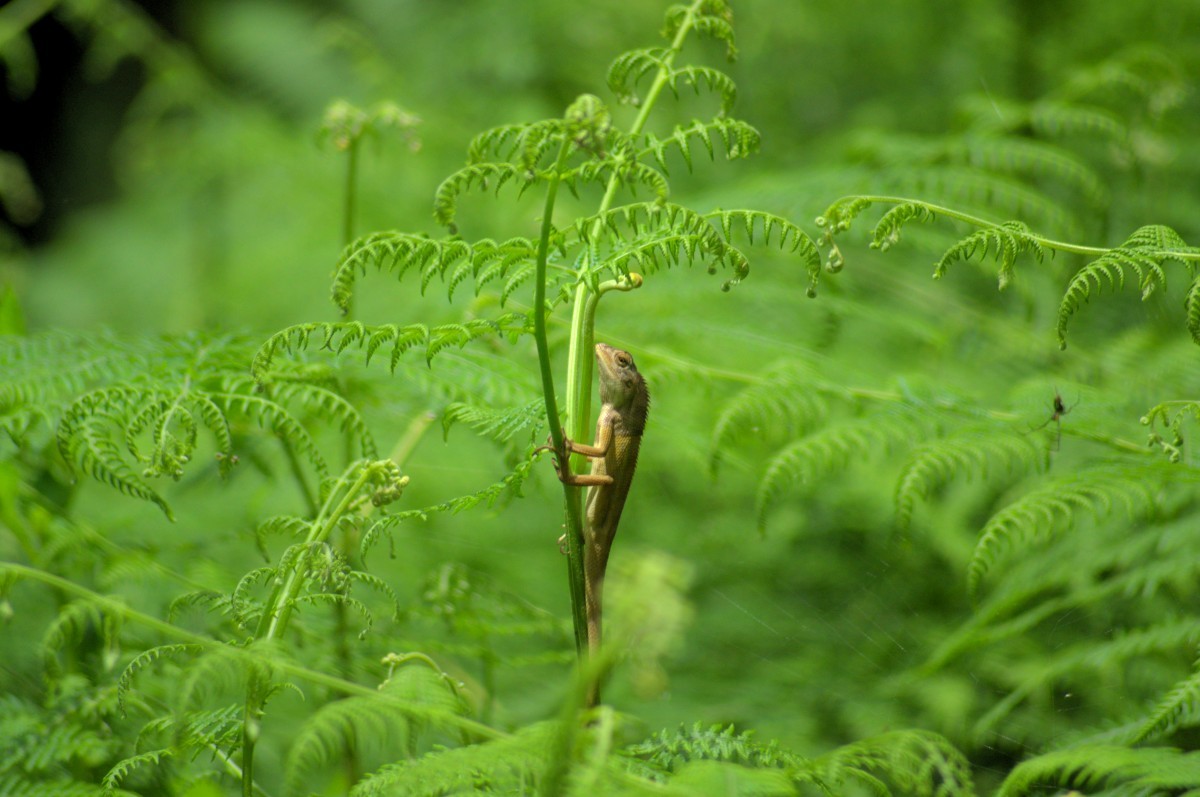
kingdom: Animalia
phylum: Chordata
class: Squamata
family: Agamidae
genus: Calotes
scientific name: Calotes versicolor
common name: Oriental garden lizard
